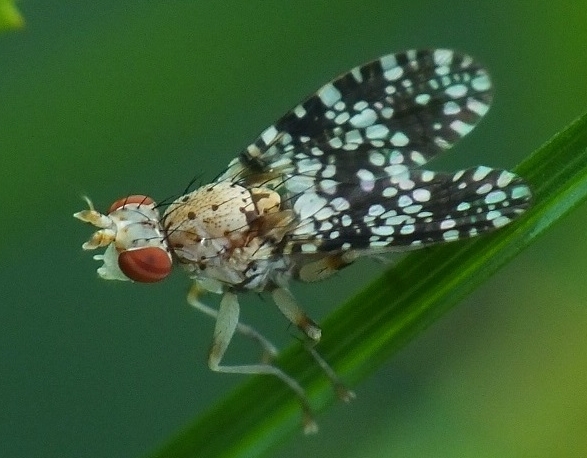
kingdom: Animalia
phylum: Arthropoda
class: Insecta
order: Diptera
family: Sciomyzidae
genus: Trypetoptera
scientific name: Trypetoptera punctulata
